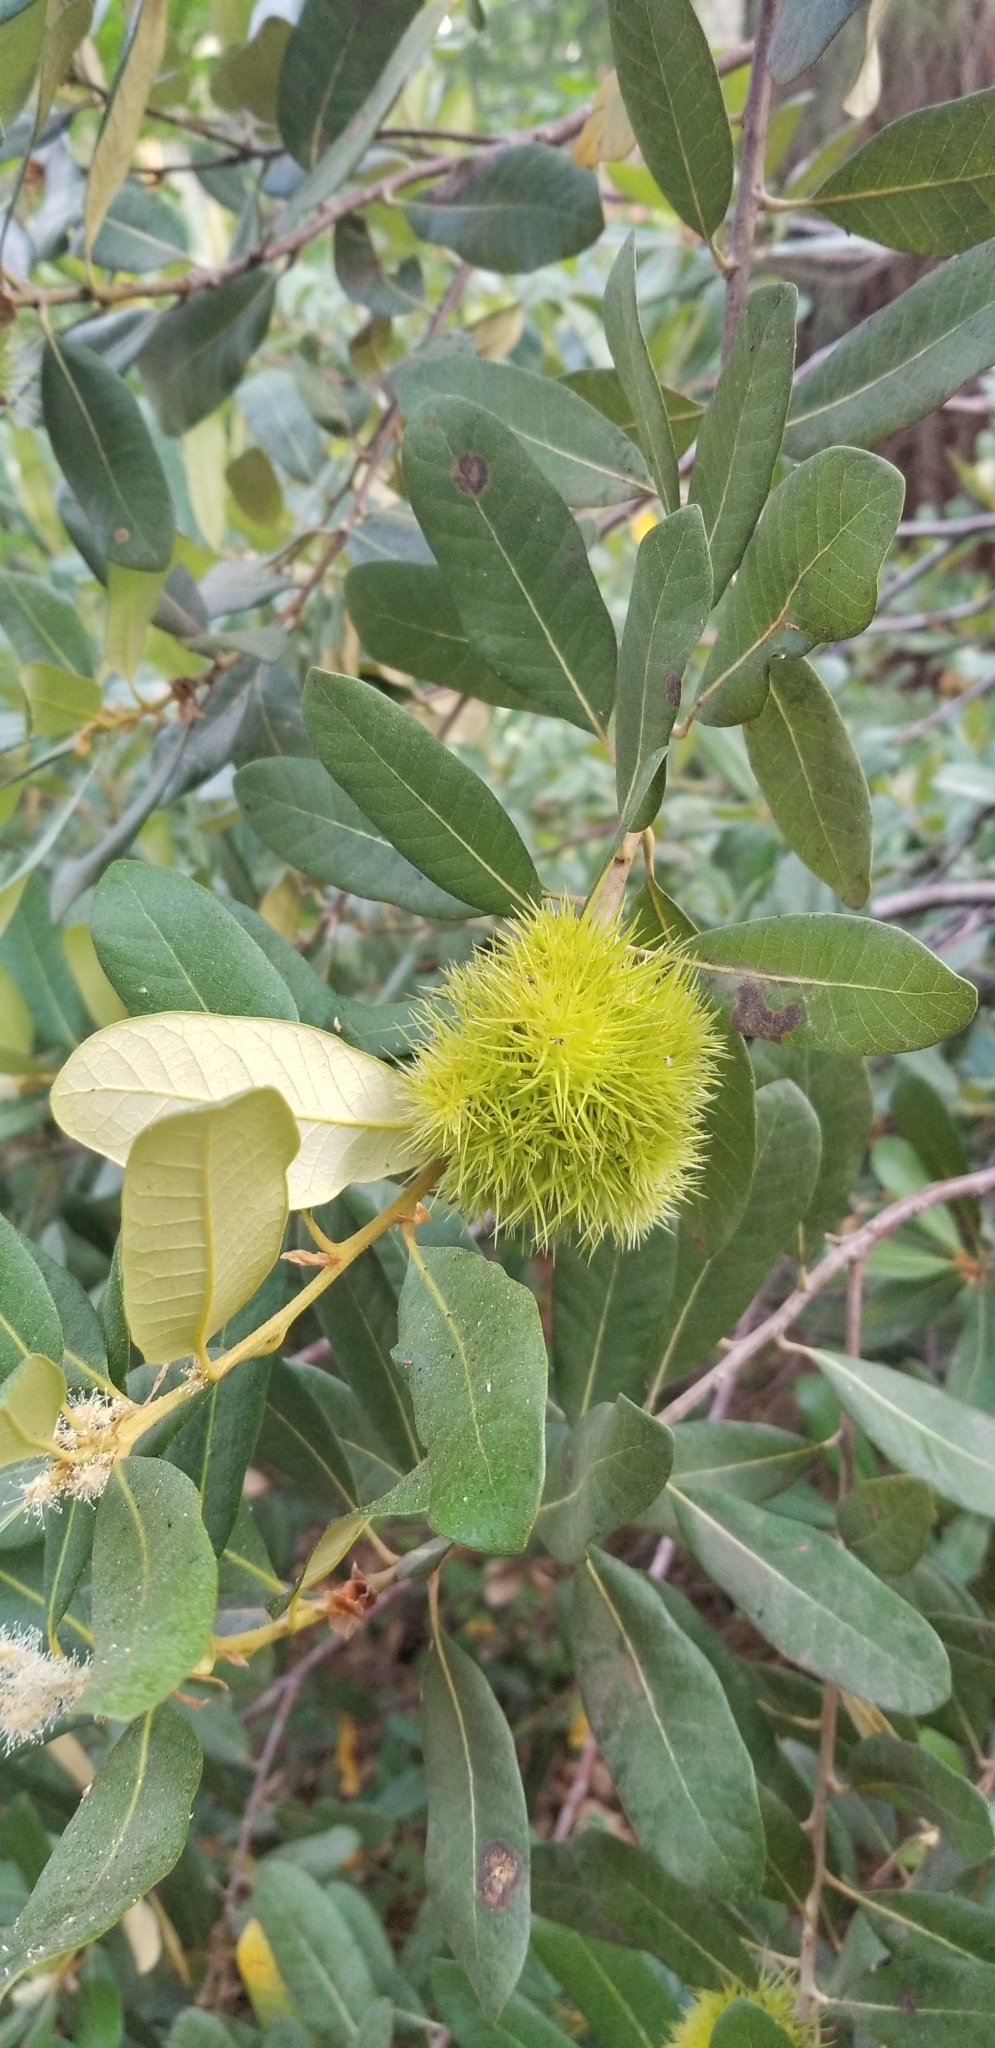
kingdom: Plantae
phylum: Tracheophyta
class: Magnoliopsida
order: Fagales
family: Fagaceae
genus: Chrysolepis
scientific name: Chrysolepis sempervirens
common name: Bush chinquapin
